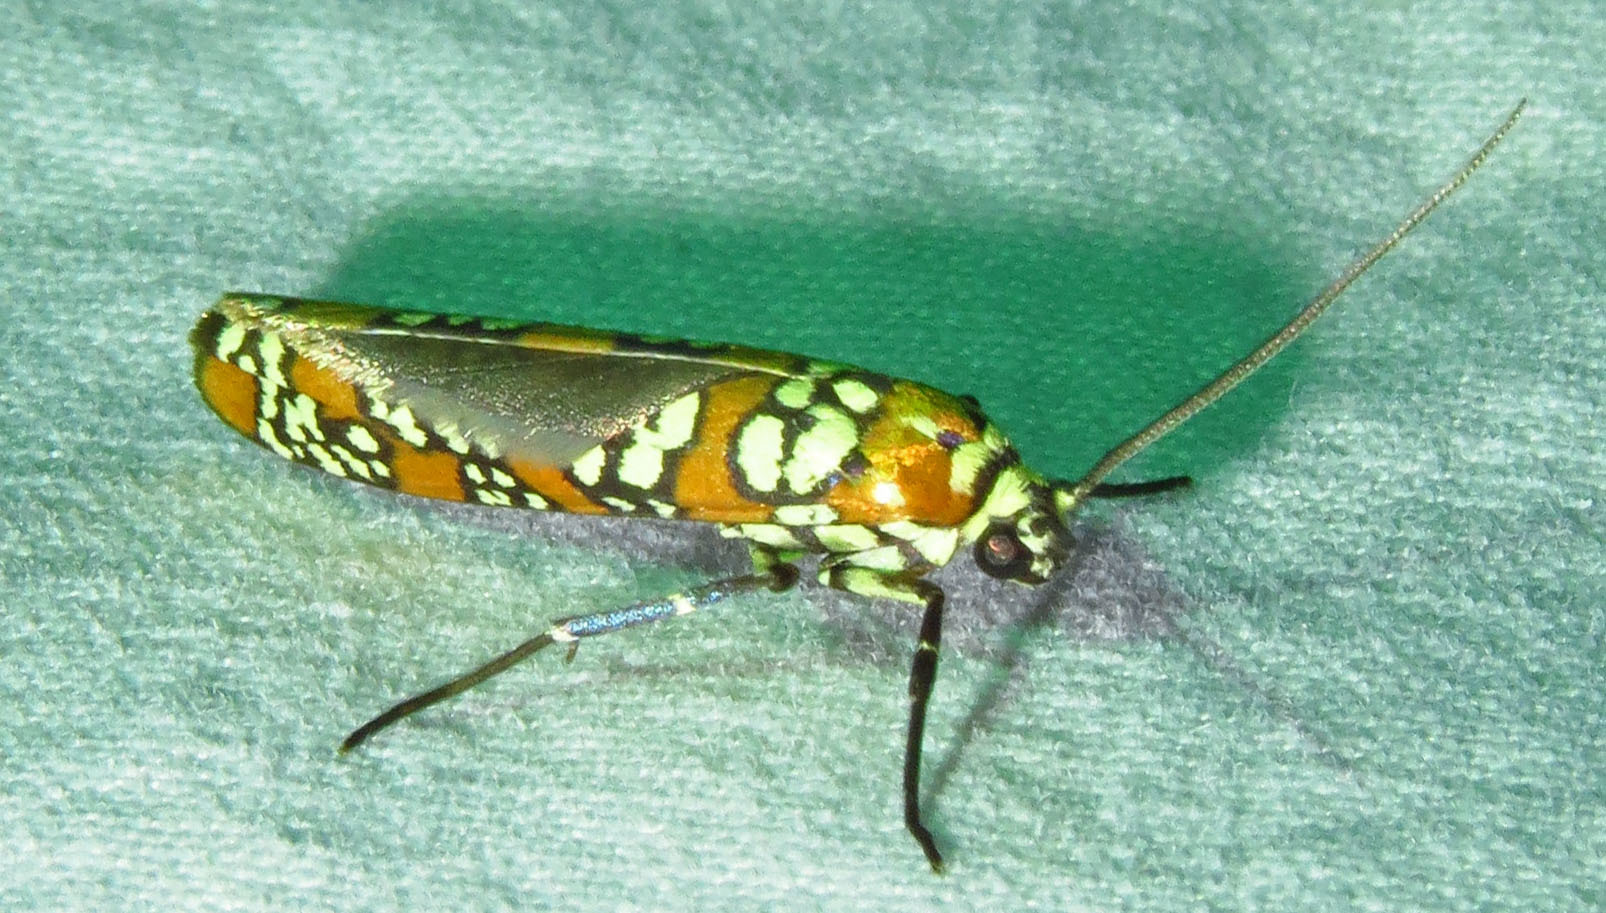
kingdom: Animalia
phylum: Arthropoda
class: Insecta
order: Lepidoptera
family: Attevidae
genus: Atteva
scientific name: Atteva punctella
